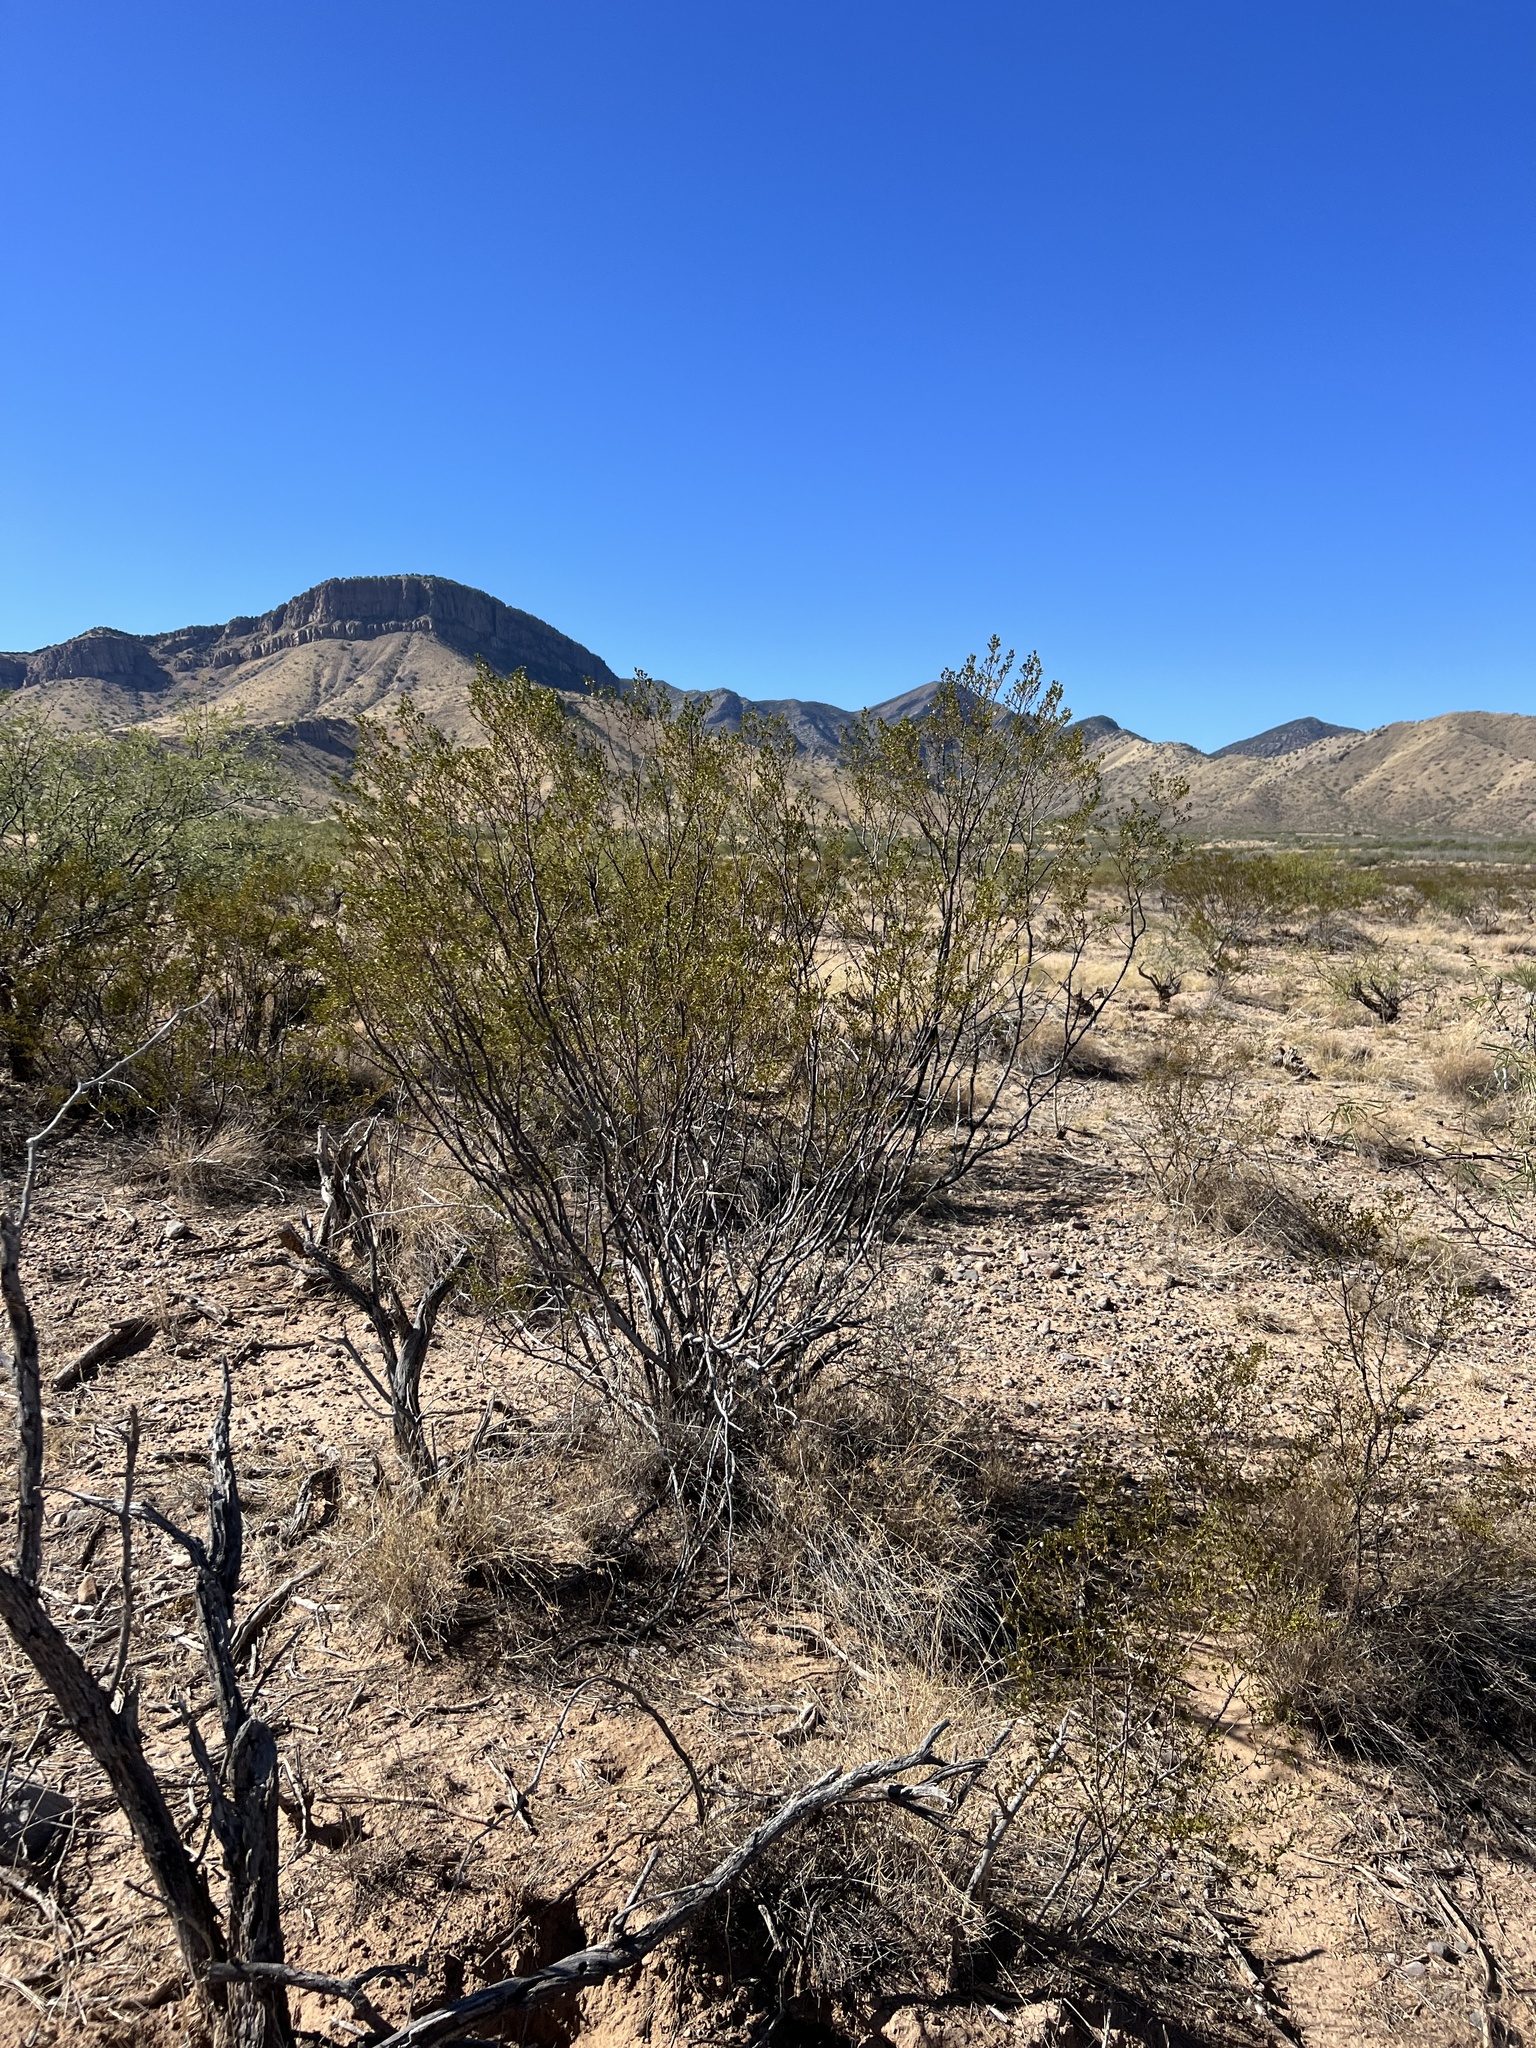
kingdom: Plantae
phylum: Tracheophyta
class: Magnoliopsida
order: Zygophyllales
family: Zygophyllaceae
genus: Larrea
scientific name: Larrea tridentata
